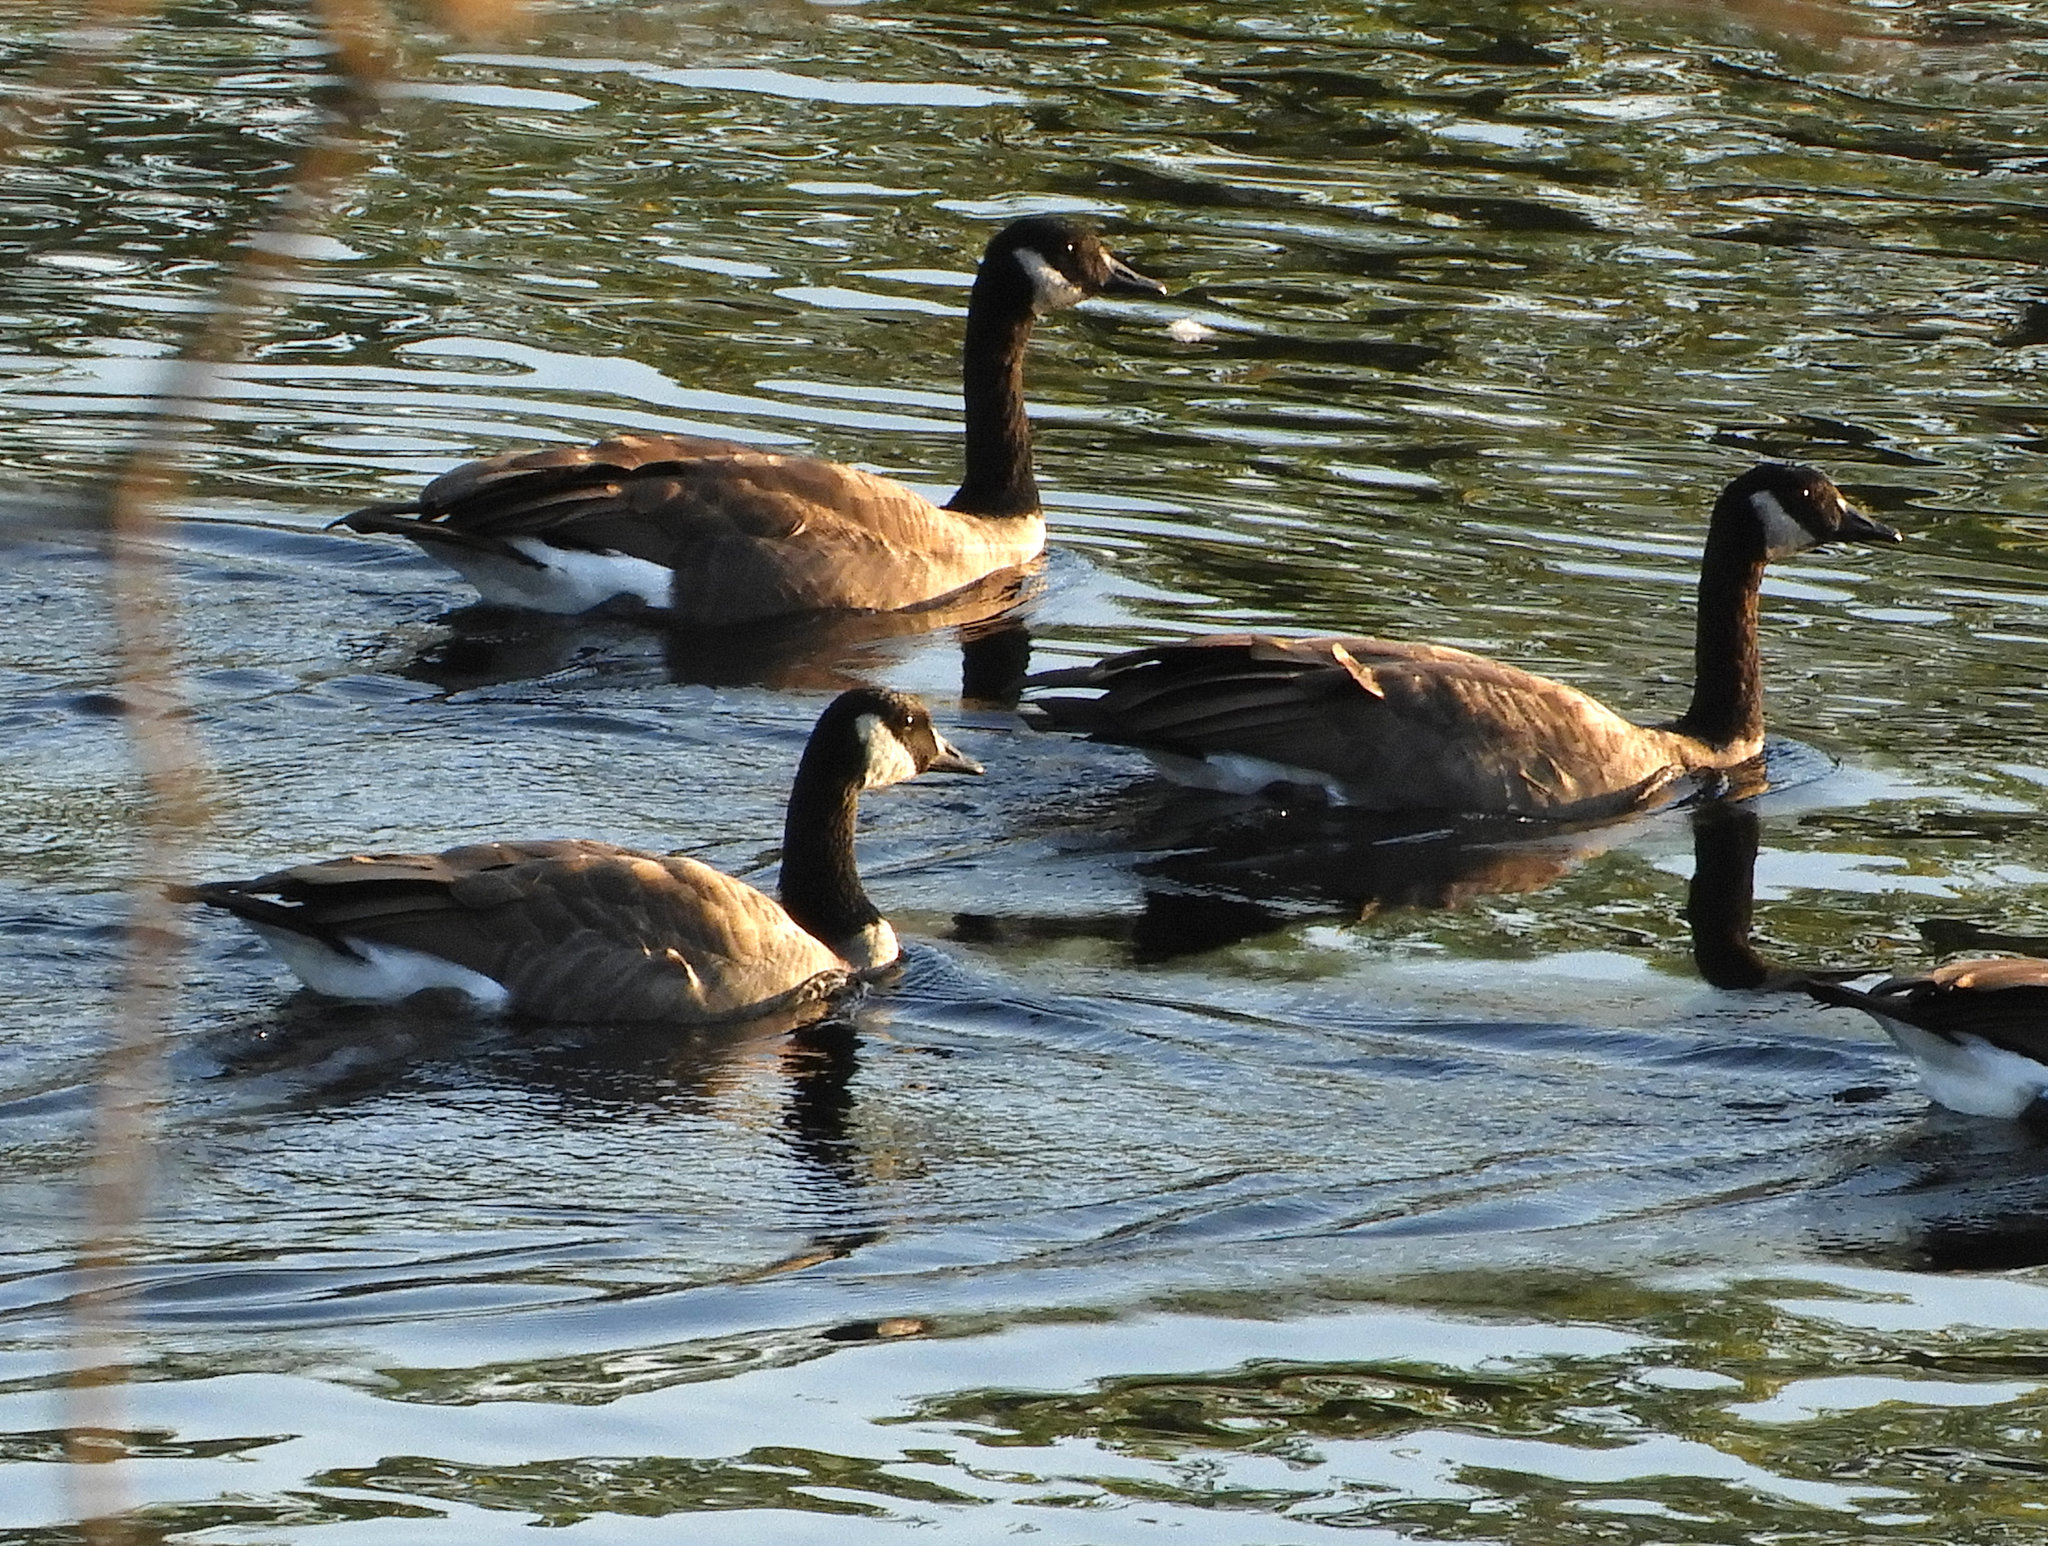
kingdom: Animalia
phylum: Chordata
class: Aves
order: Anseriformes
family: Anatidae
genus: Branta
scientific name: Branta canadensis
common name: Canada goose
